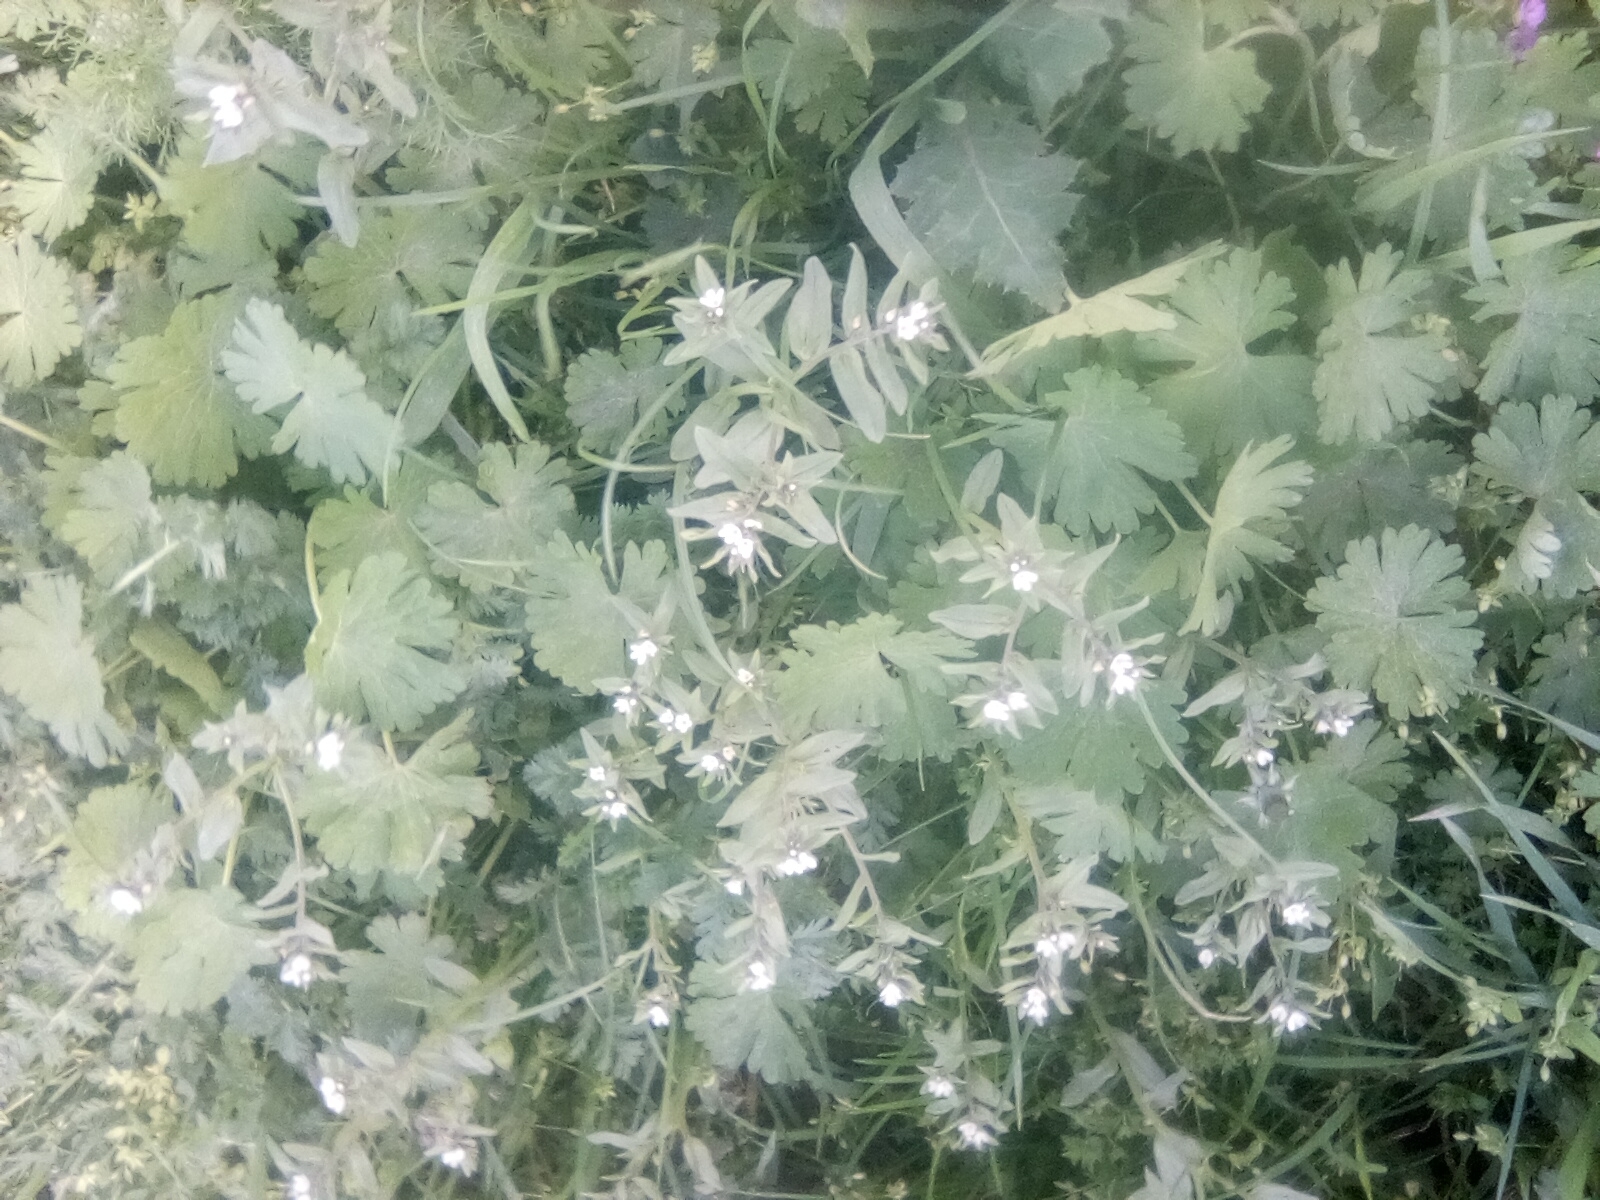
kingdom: Plantae
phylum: Tracheophyta
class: Magnoliopsida
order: Boraginales
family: Boraginaceae
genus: Buglossoides
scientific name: Buglossoides arvensis
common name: Corn gromwell
